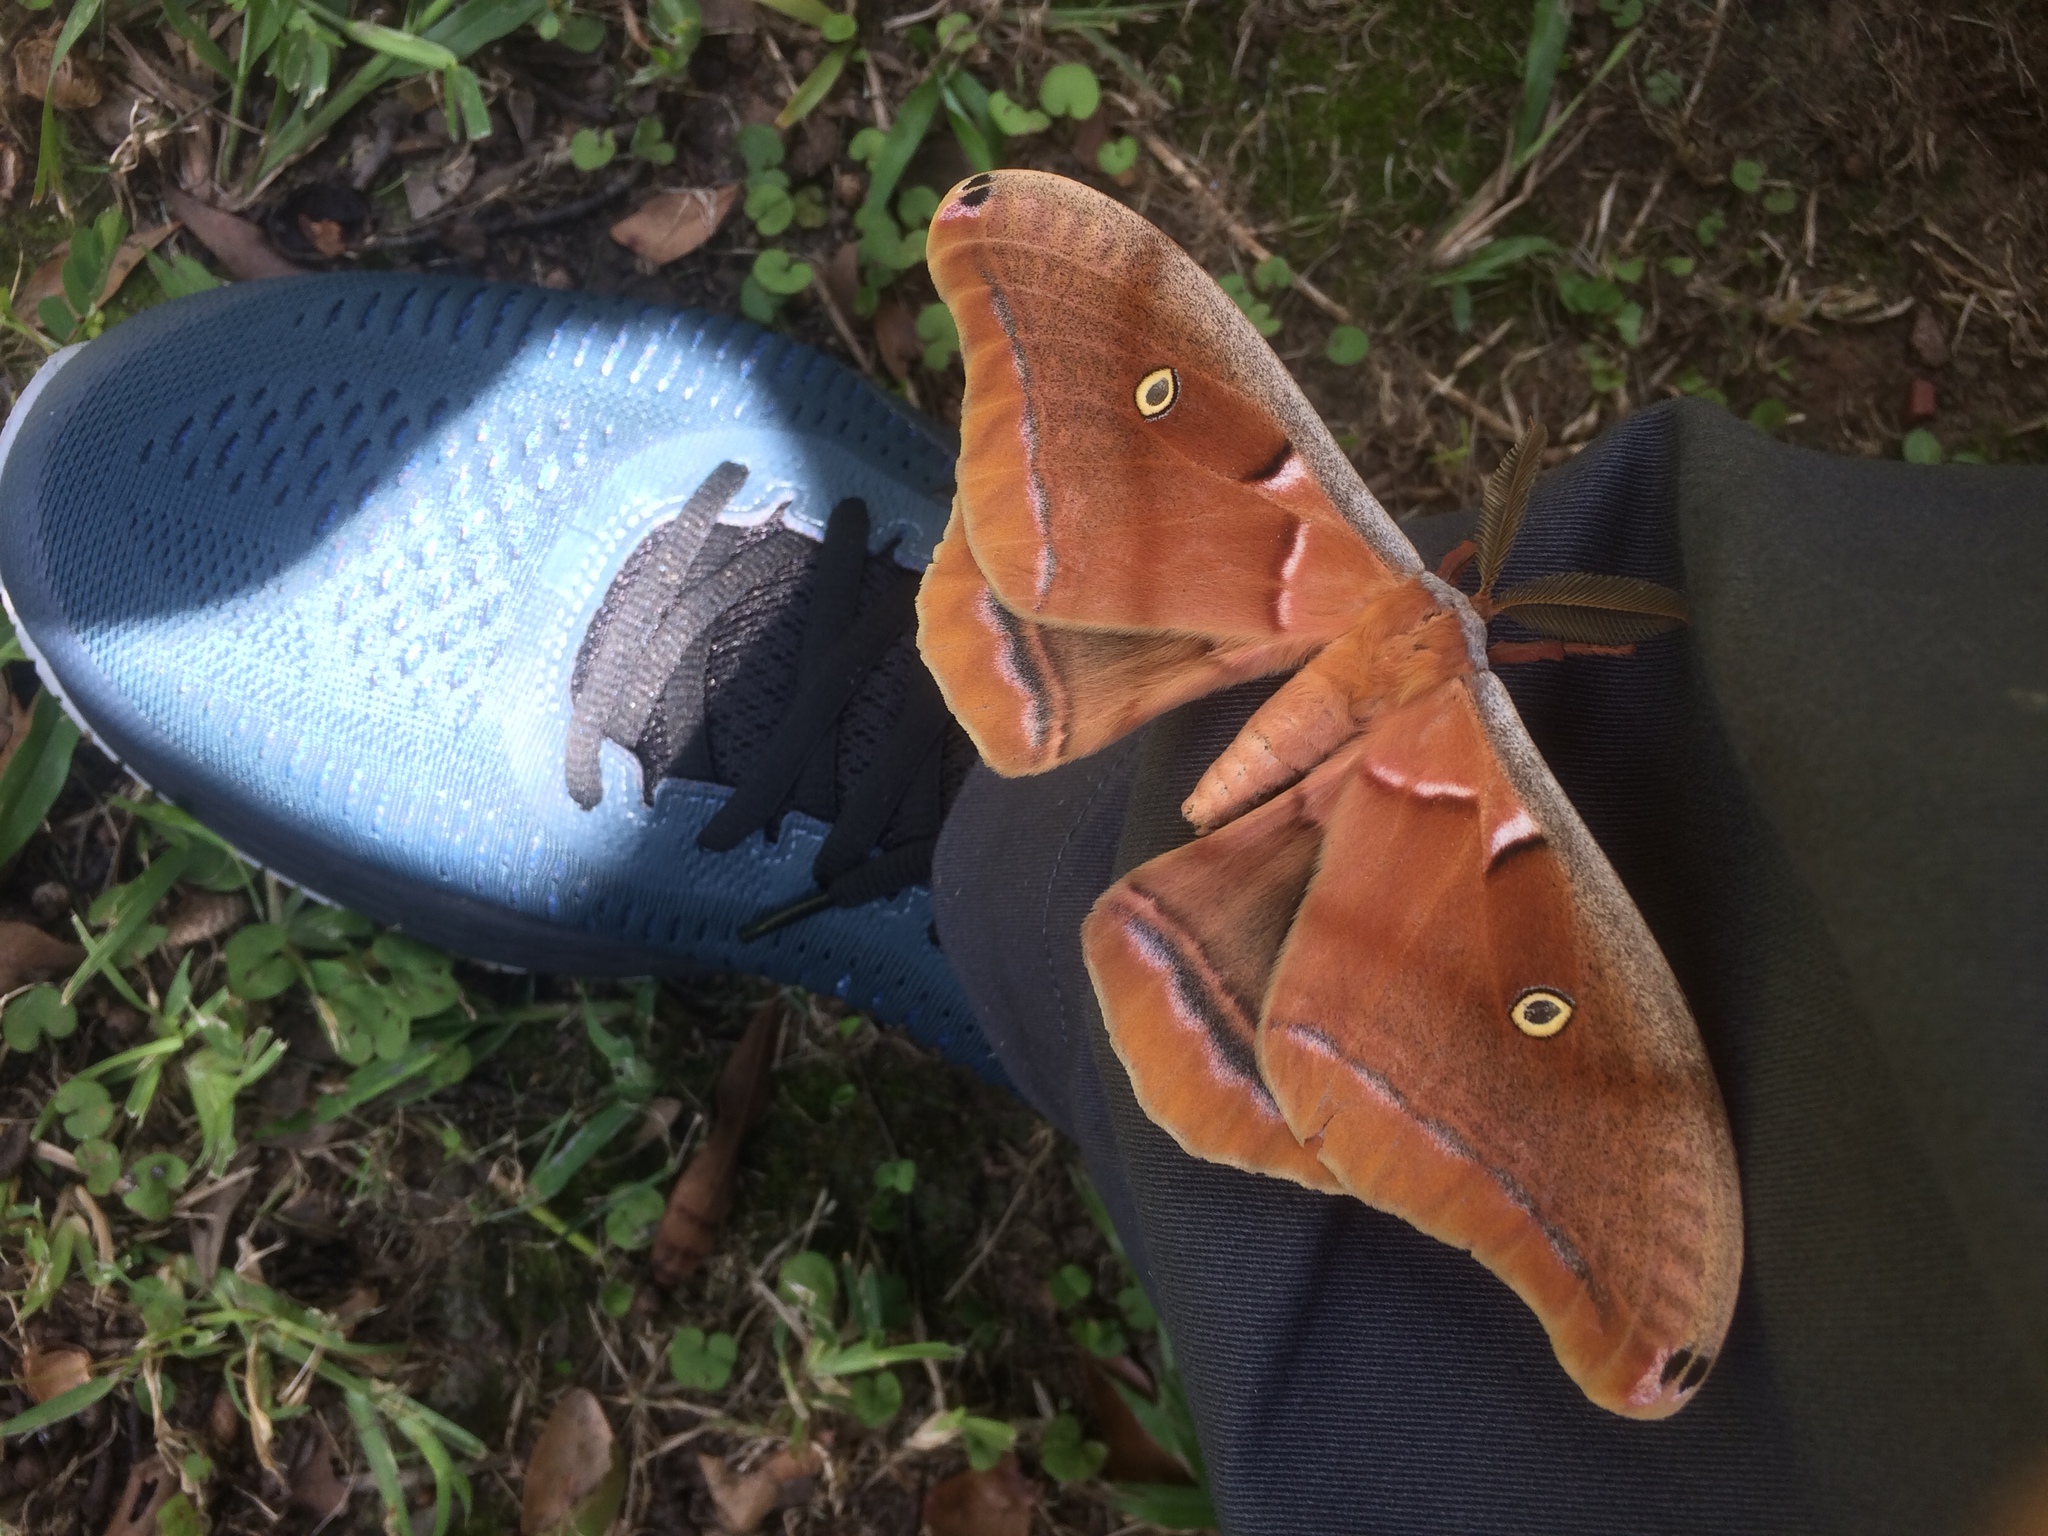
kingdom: Animalia
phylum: Arthropoda
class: Insecta
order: Lepidoptera
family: Saturniidae
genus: Antheraea
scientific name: Antheraea polyphemus
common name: Polyphemus moth
